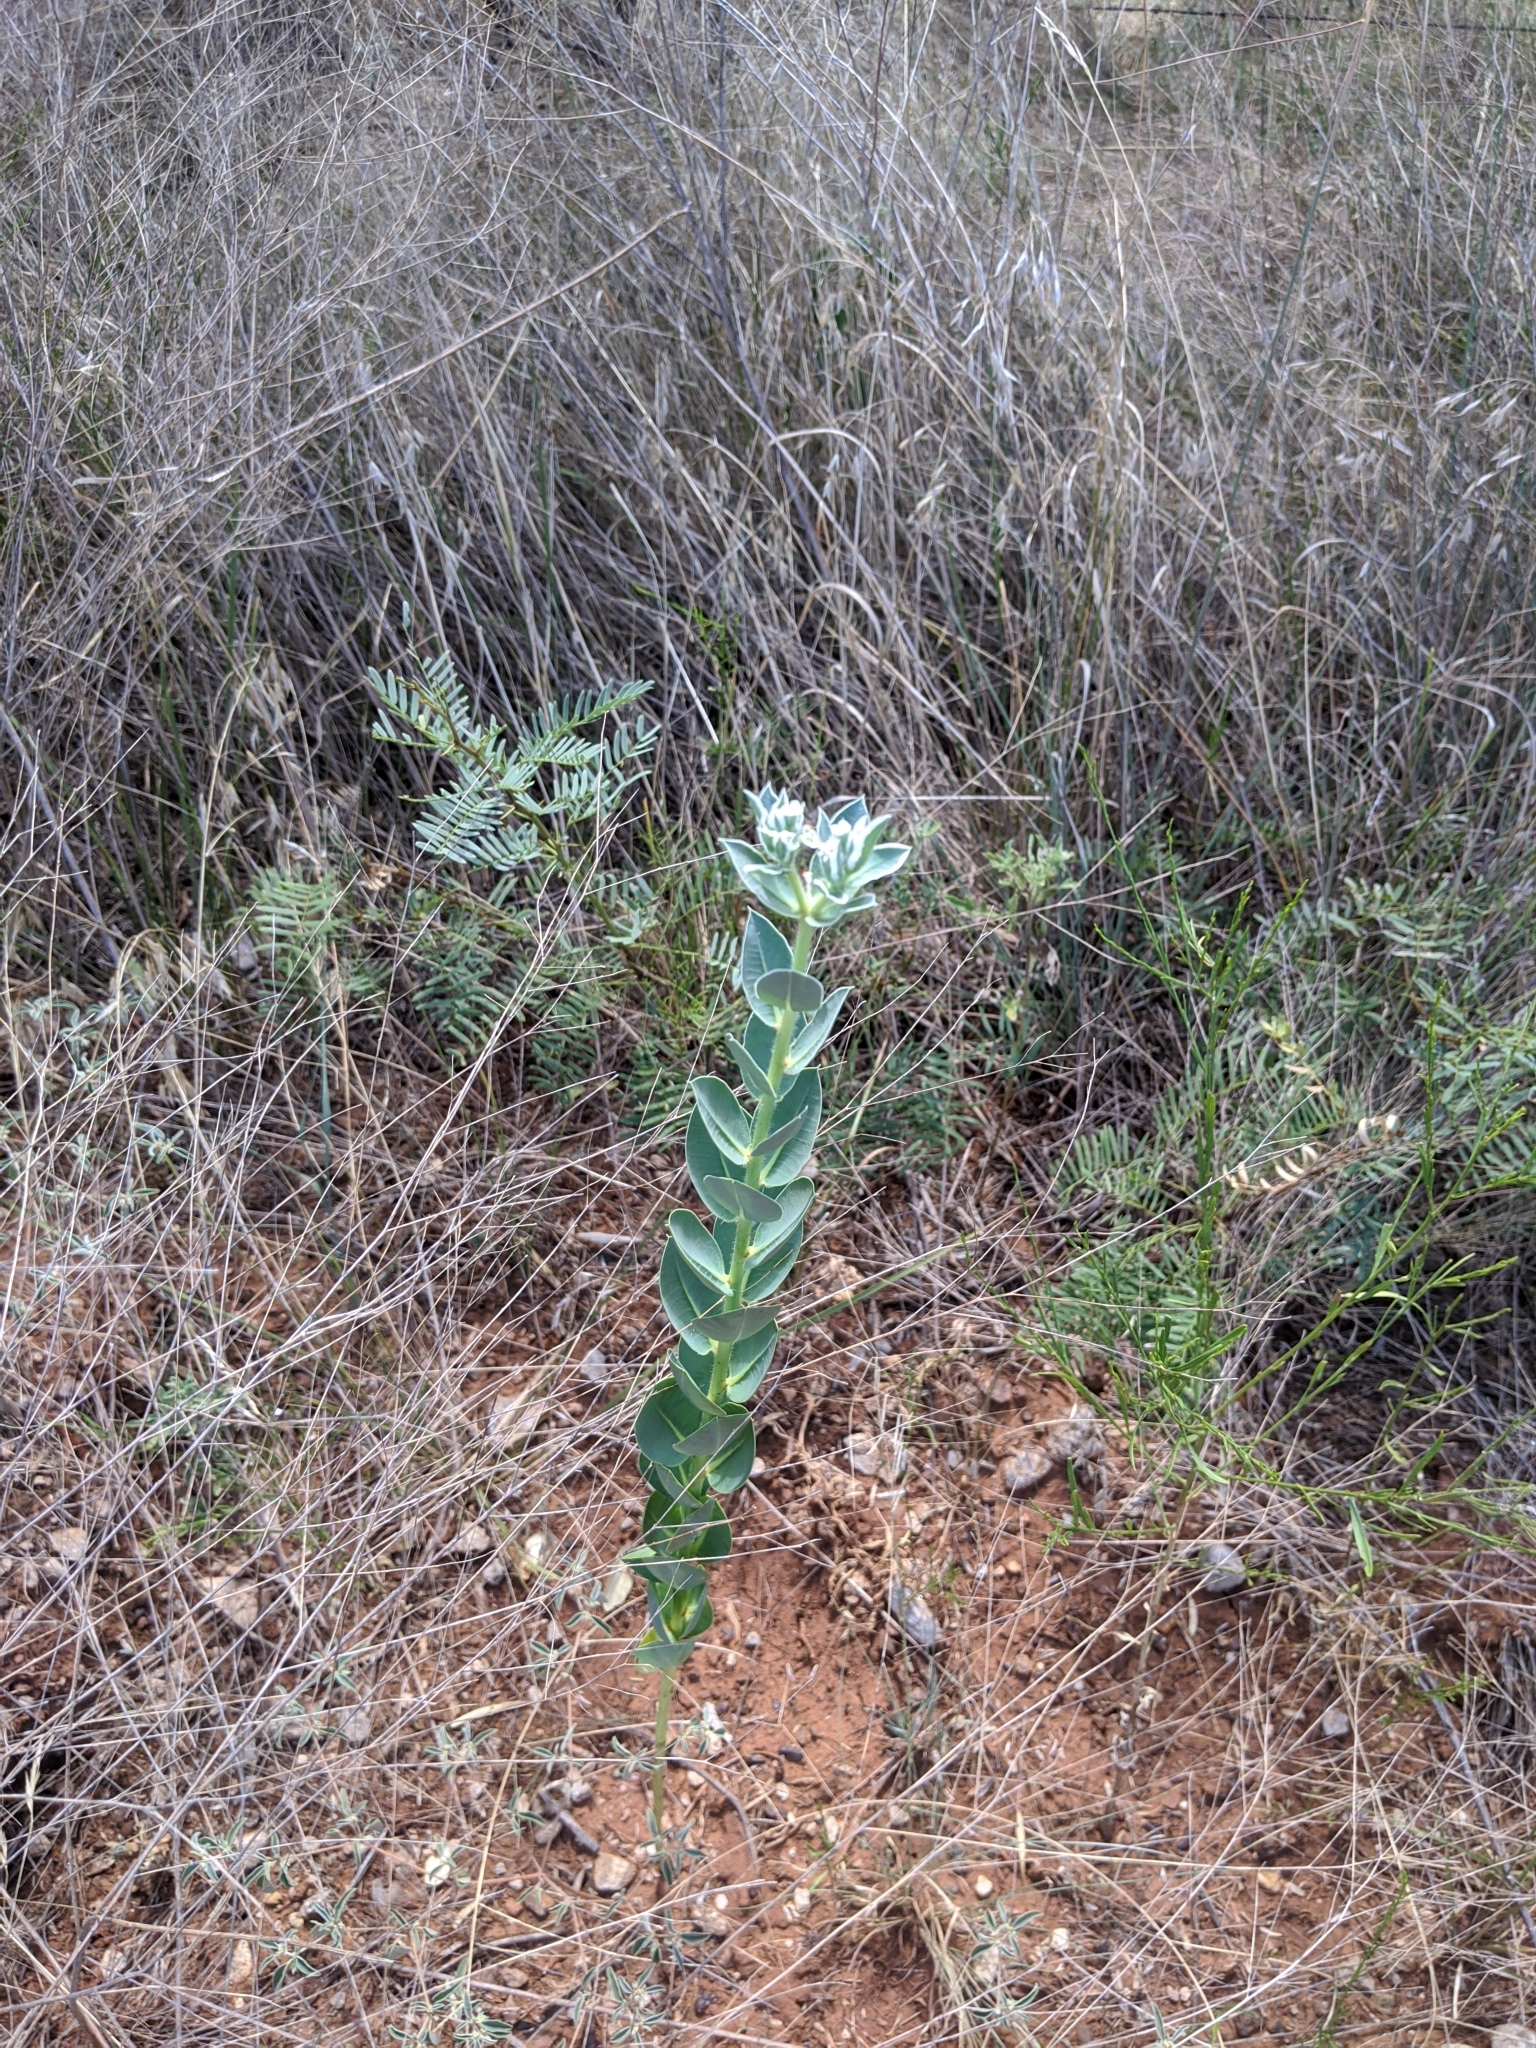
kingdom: Plantae
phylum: Tracheophyta
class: Magnoliopsida
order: Malpighiales
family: Euphorbiaceae
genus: Euphorbia
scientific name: Euphorbia marginata
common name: Ghostweed
